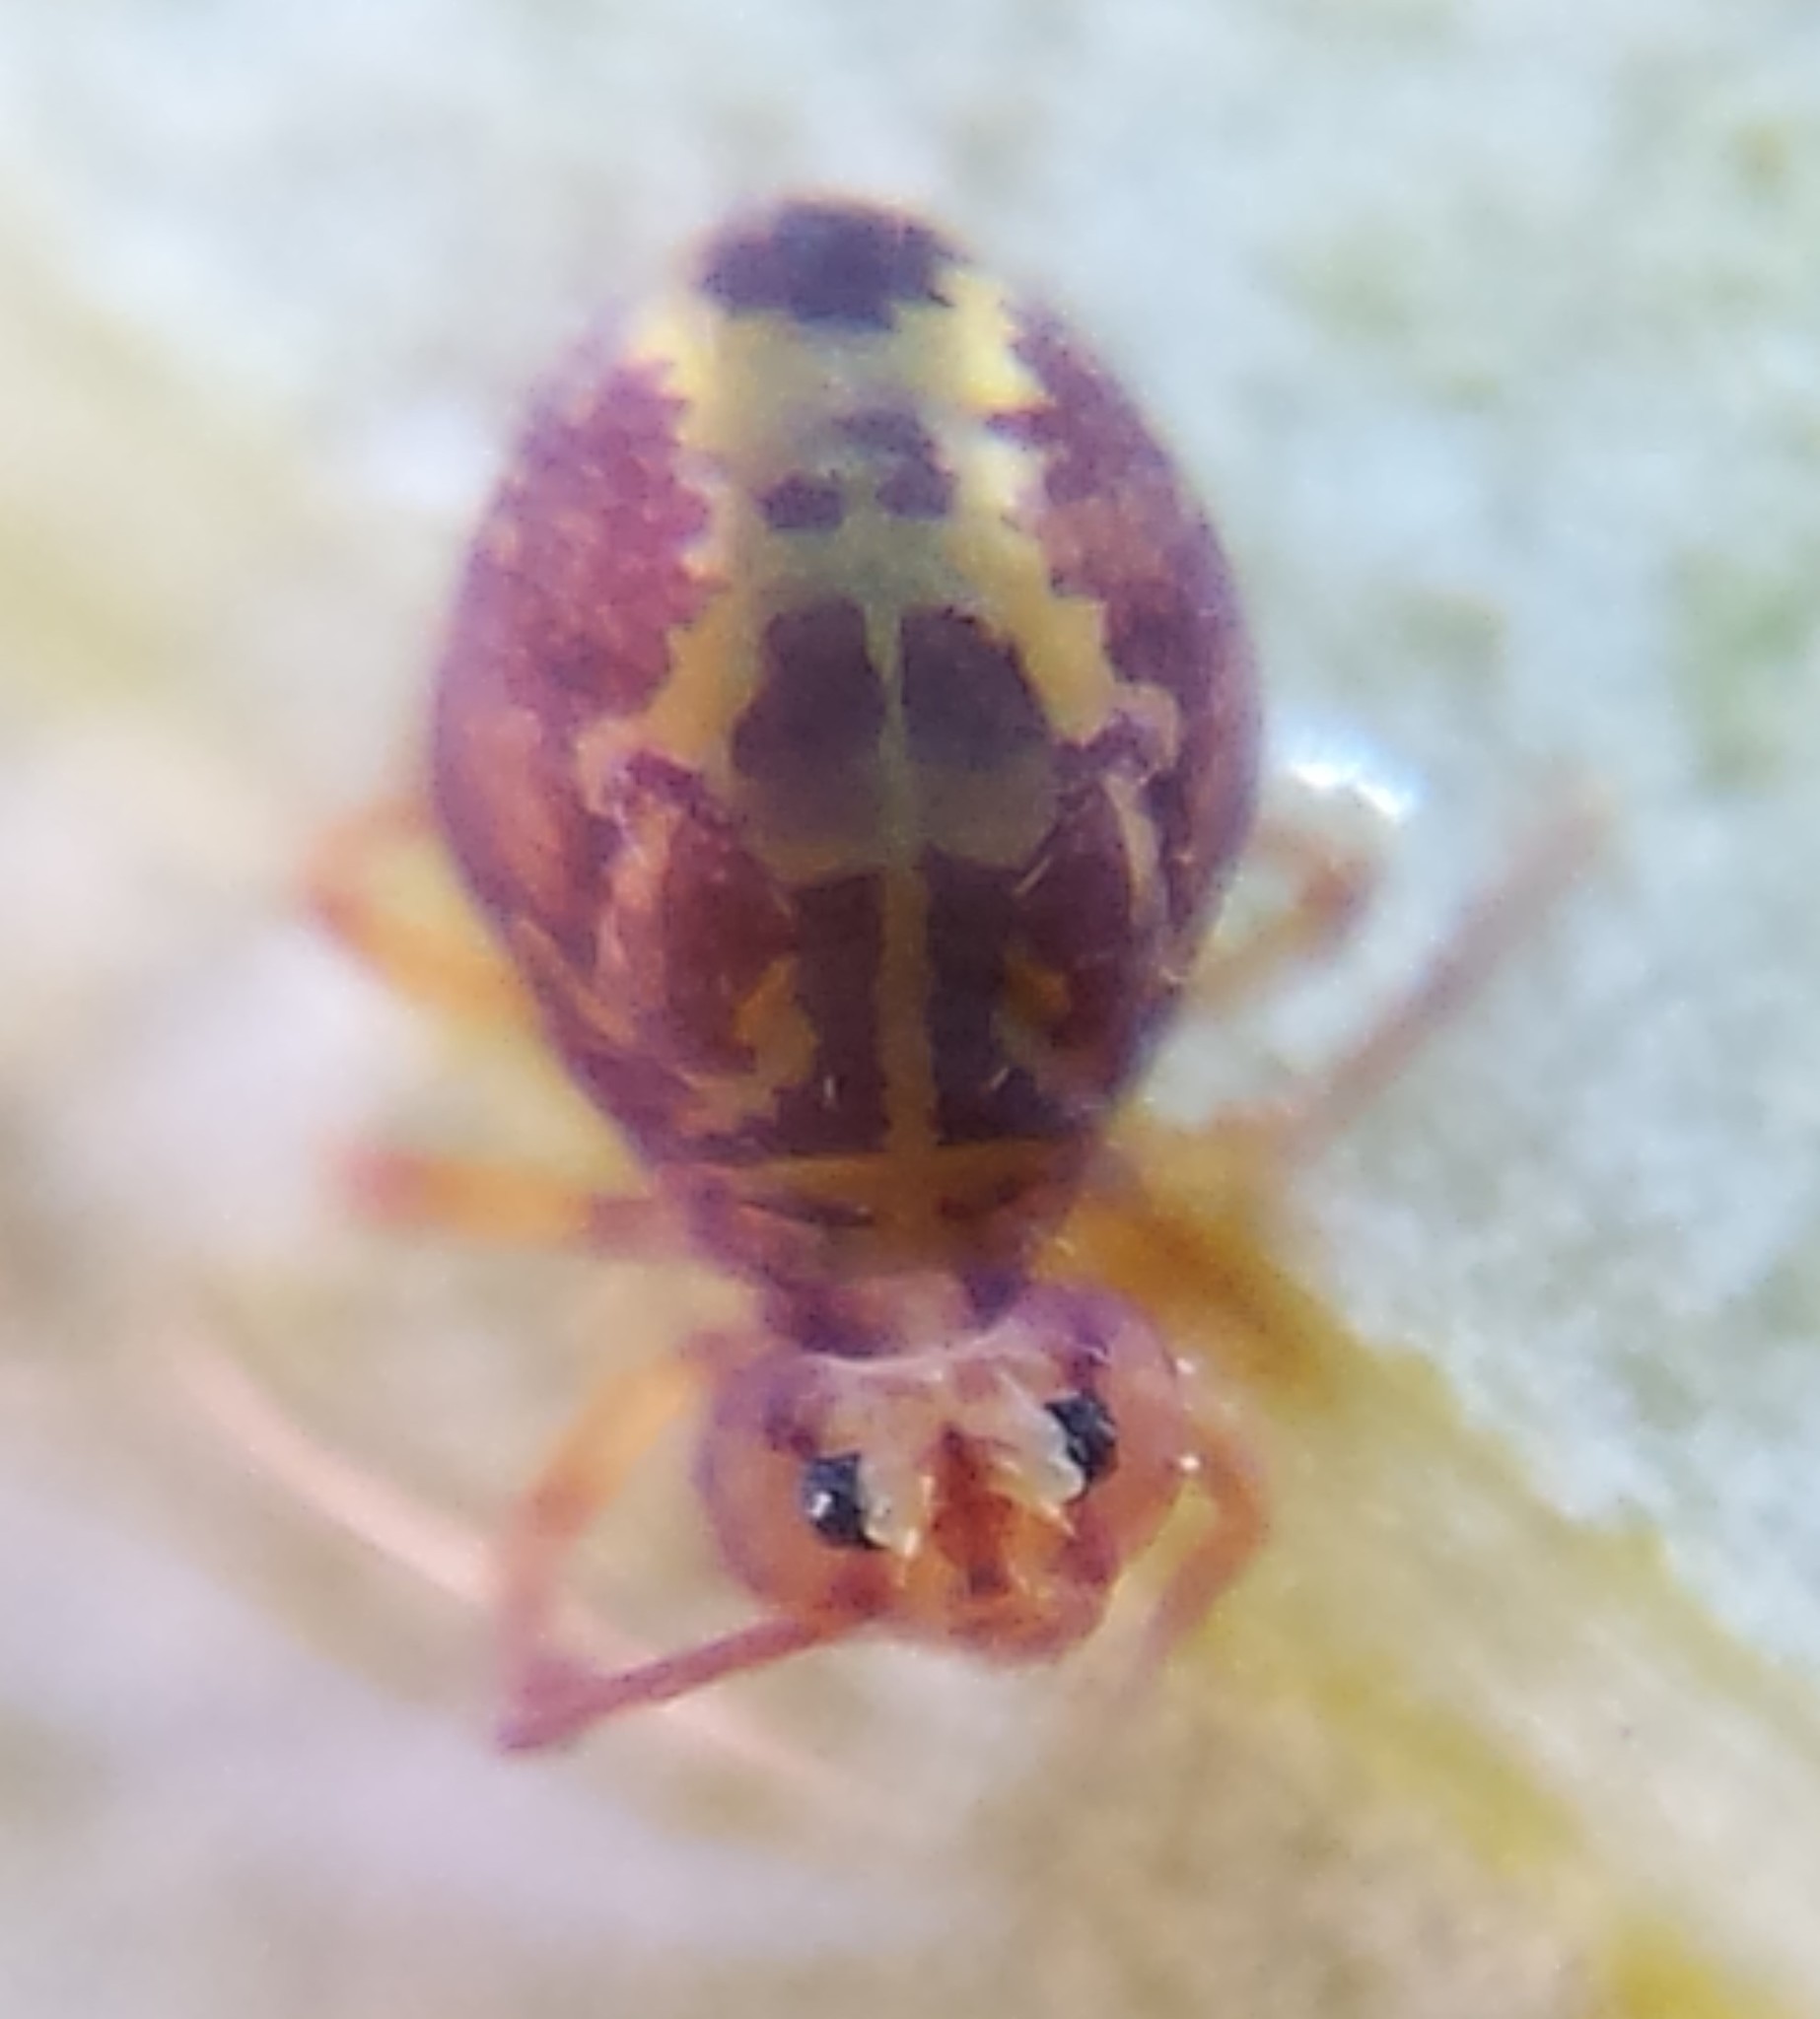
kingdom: Animalia
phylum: Arthropoda
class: Collembola
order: Symphypleona
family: Dicyrtomidae
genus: Dicyrtomina
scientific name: Dicyrtomina minuta
